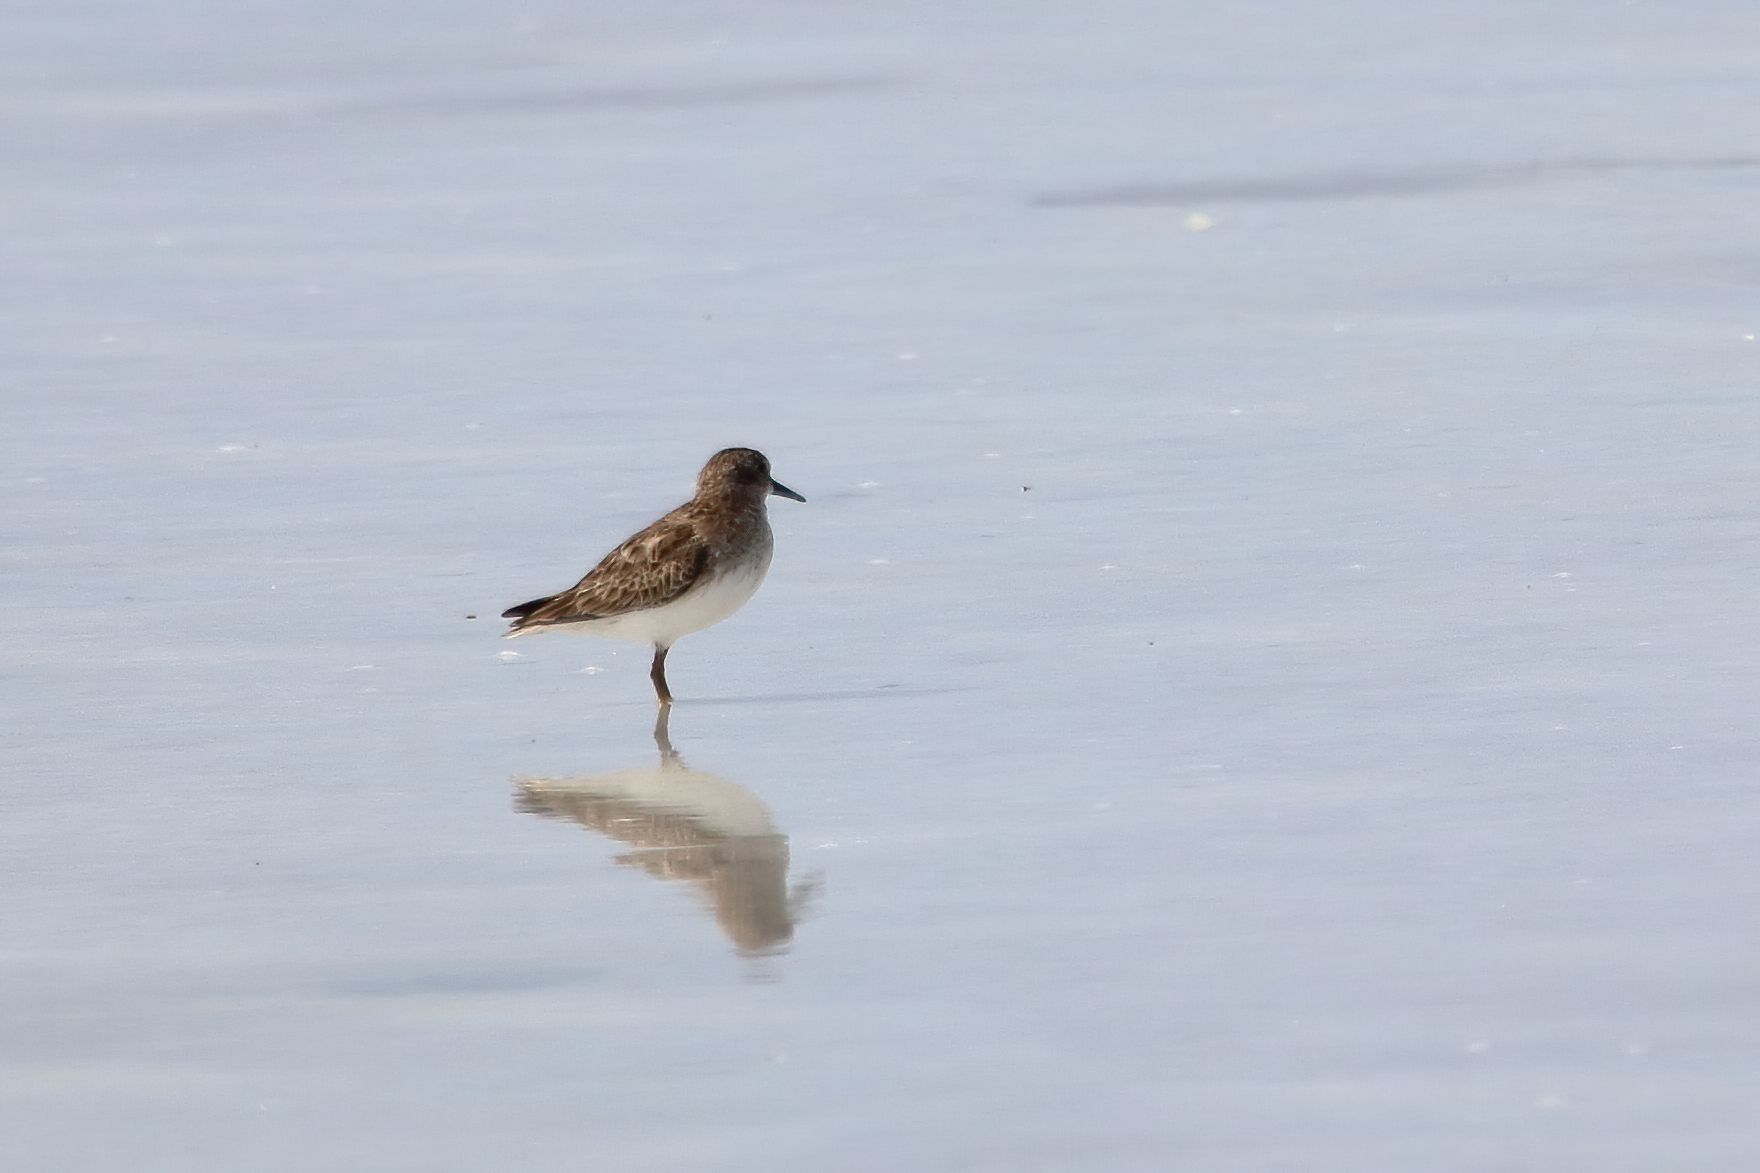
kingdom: Animalia
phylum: Chordata
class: Aves
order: Charadriiformes
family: Scolopacidae
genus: Calidris
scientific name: Calidris minutilla
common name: Least sandpiper
